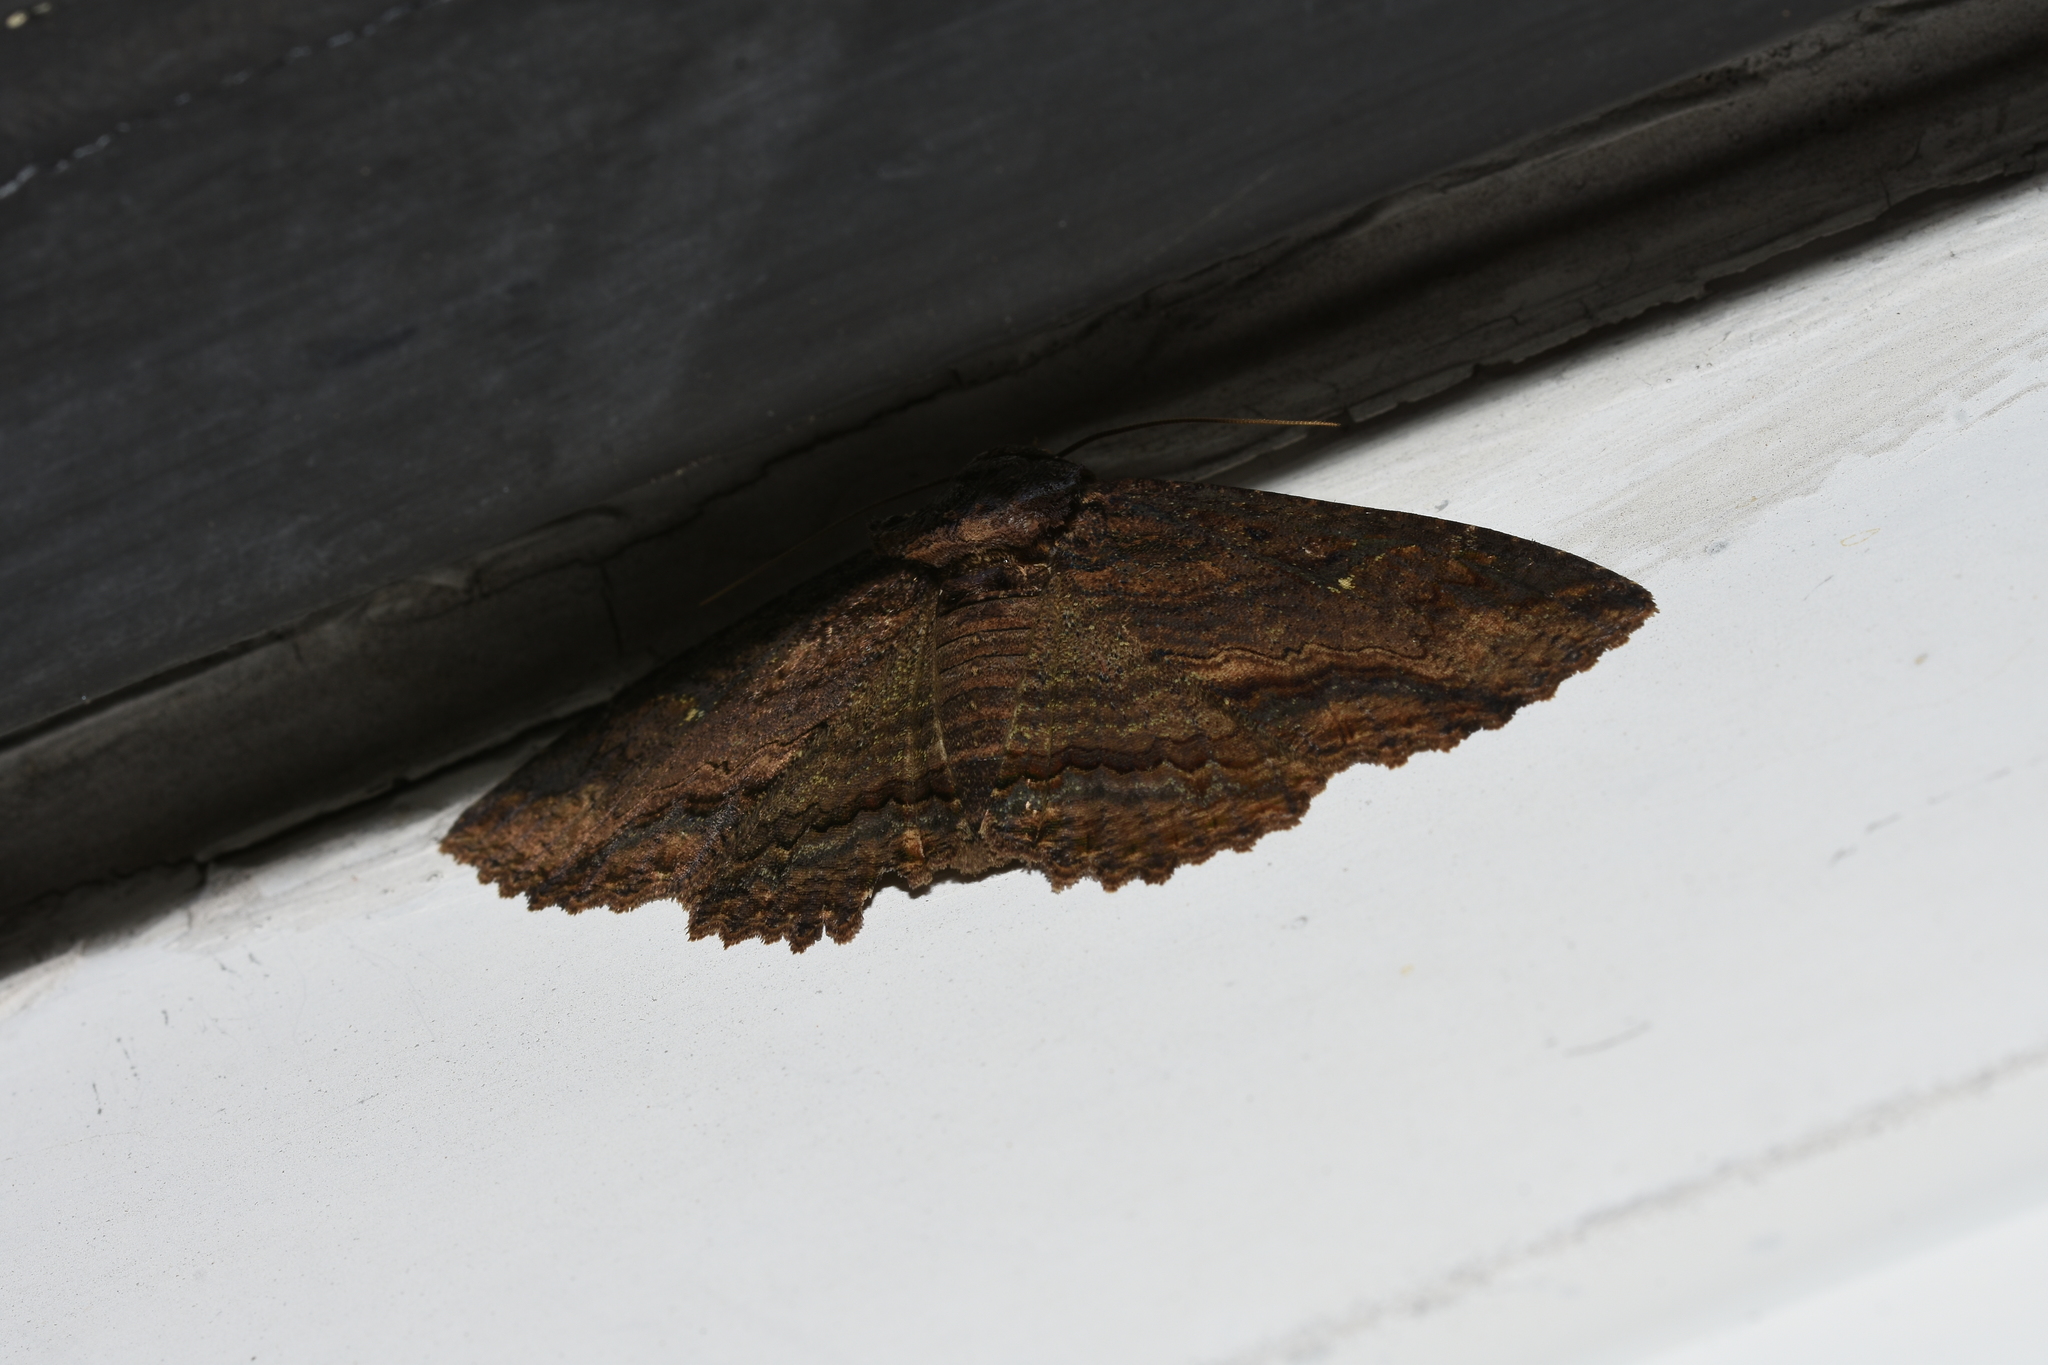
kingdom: Animalia
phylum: Arthropoda
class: Insecta
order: Lepidoptera
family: Erebidae
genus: Zale
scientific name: Zale lunata
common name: Lunate zale moth
